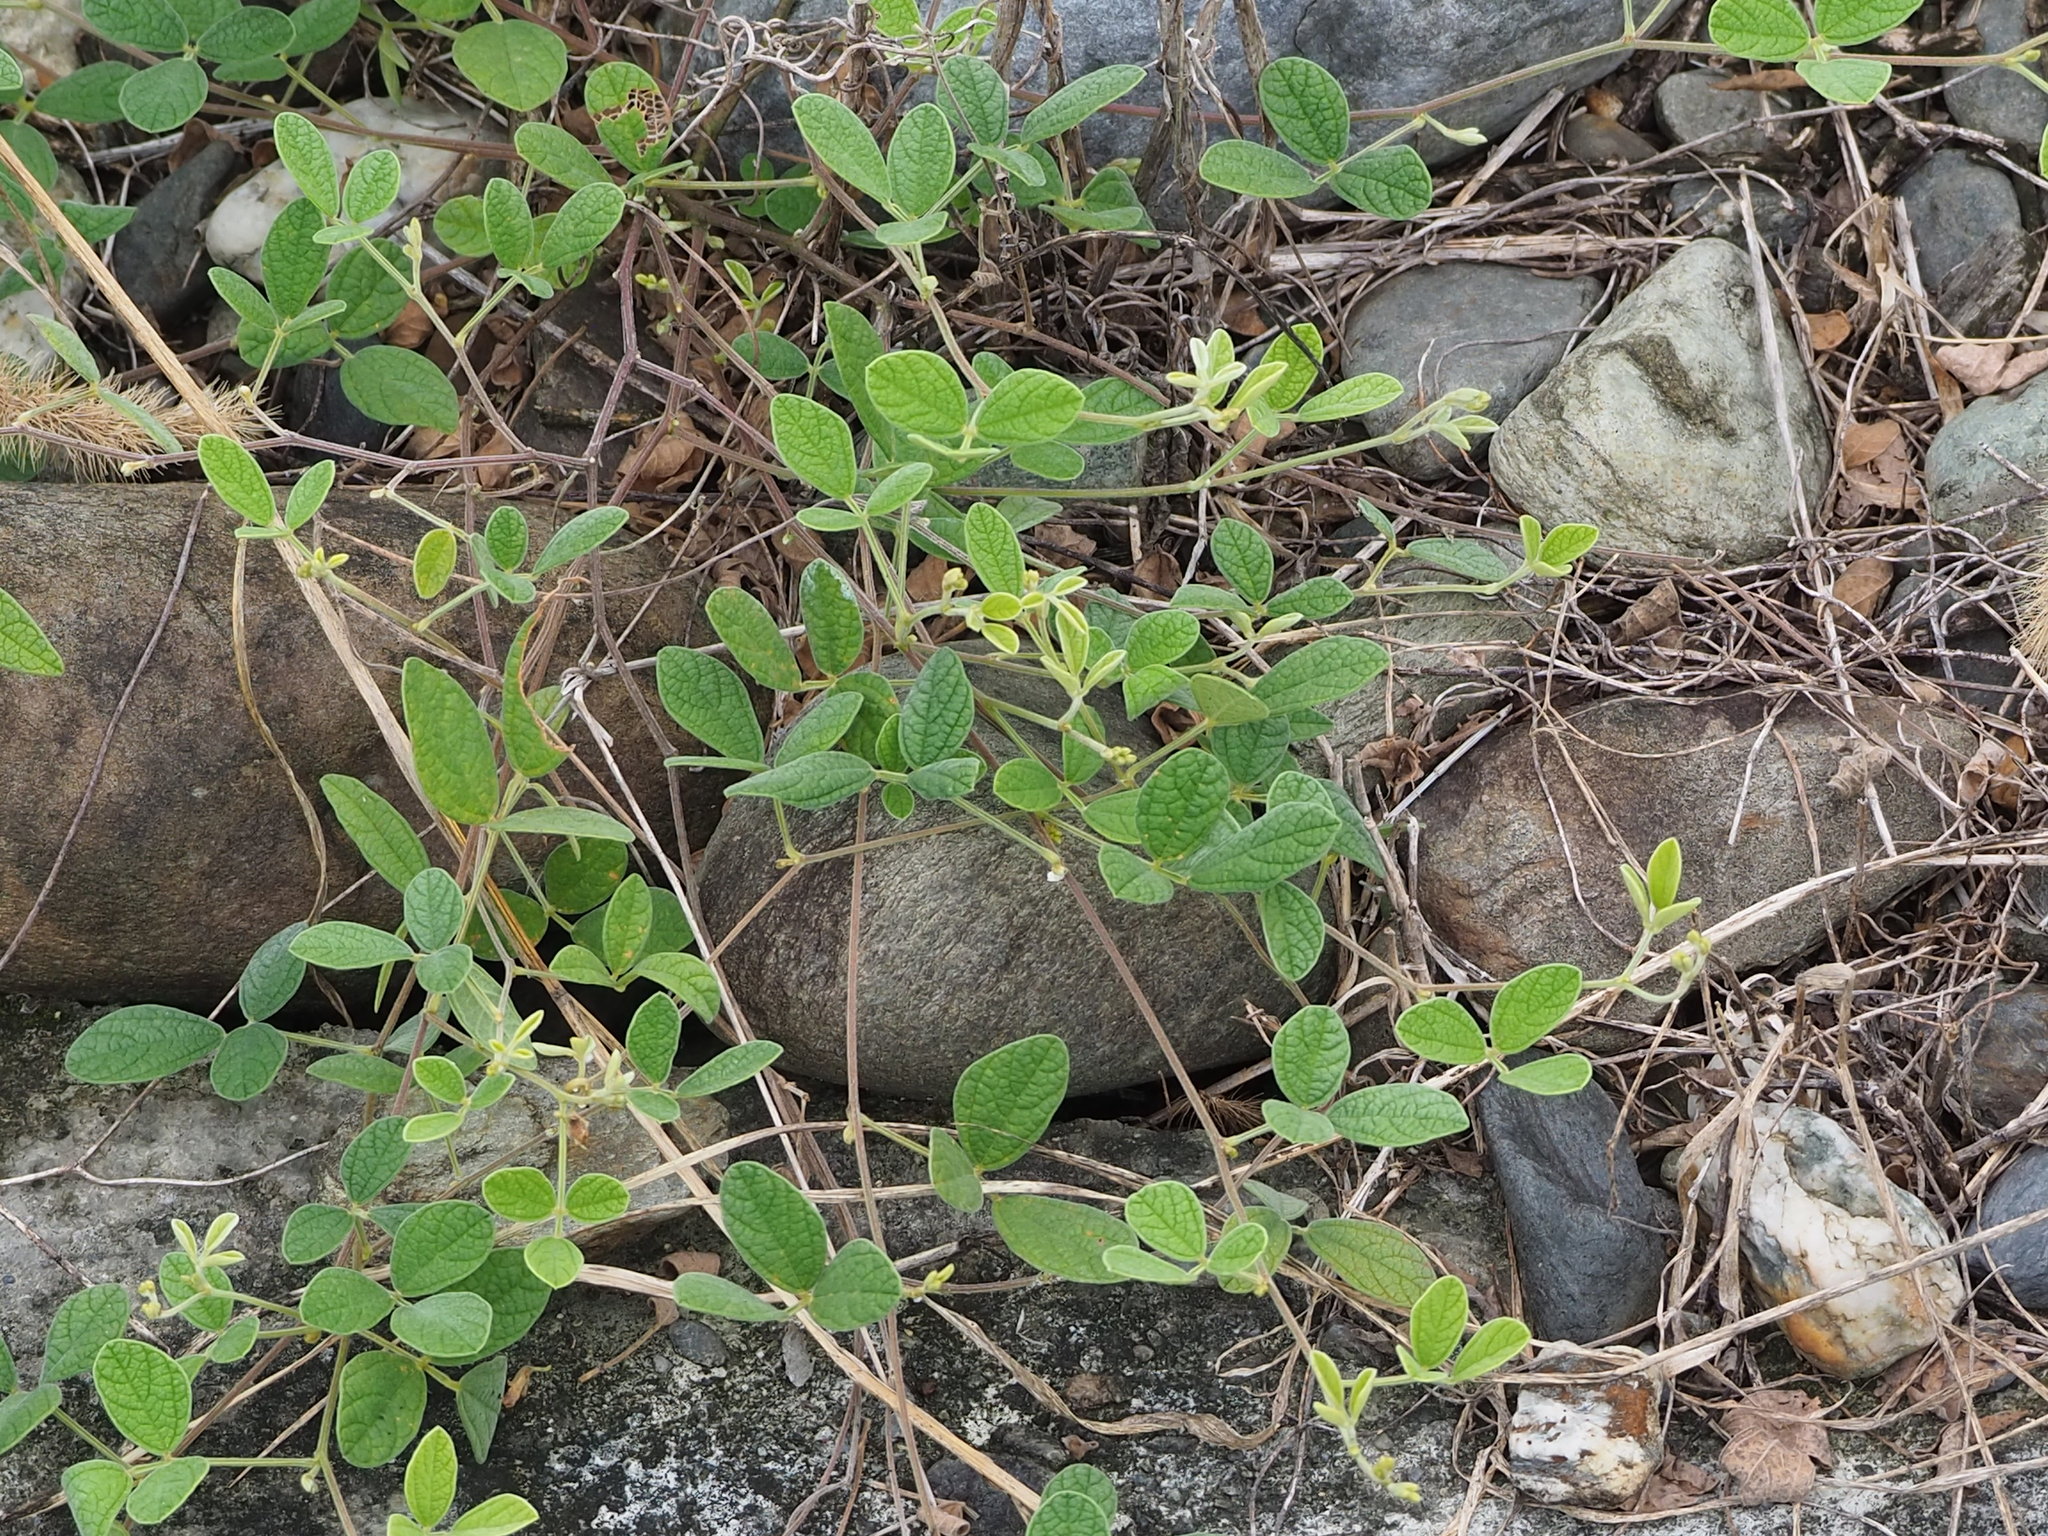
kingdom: Plantae
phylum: Tracheophyta
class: Magnoliopsida
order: Fabales
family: Fabaceae
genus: Cajanus
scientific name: Cajanus scarabaeoides
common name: Showy pigeonpea
